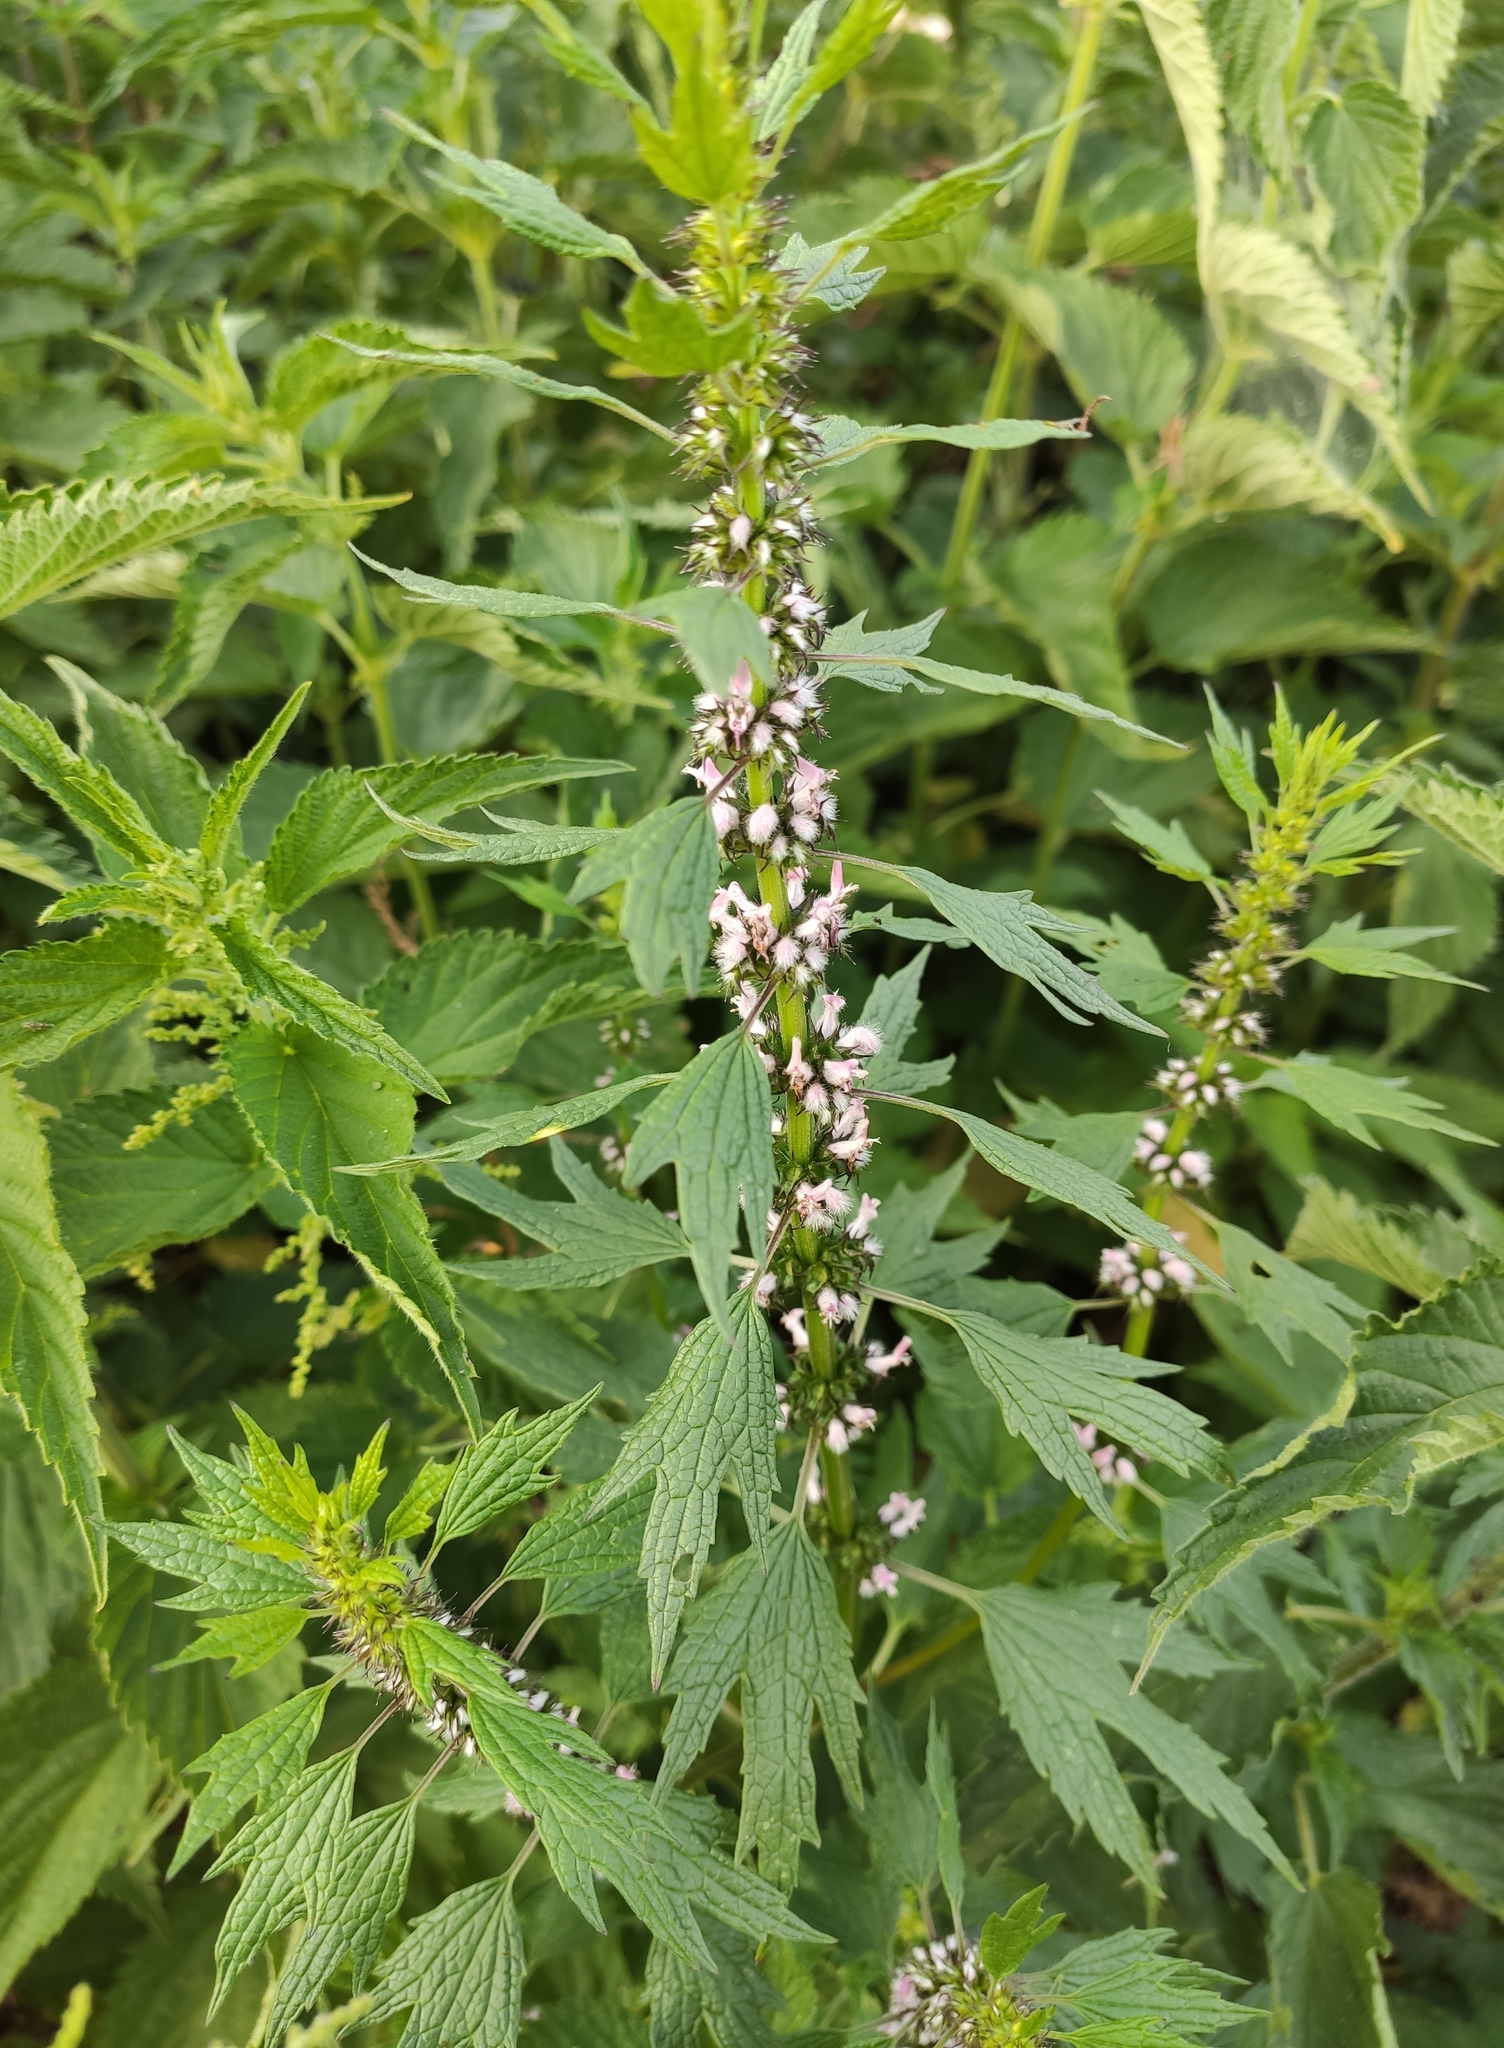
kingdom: Plantae
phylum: Tracheophyta
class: Magnoliopsida
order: Lamiales
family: Lamiaceae
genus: Leonurus
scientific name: Leonurus cardiaca
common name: Motherwort
